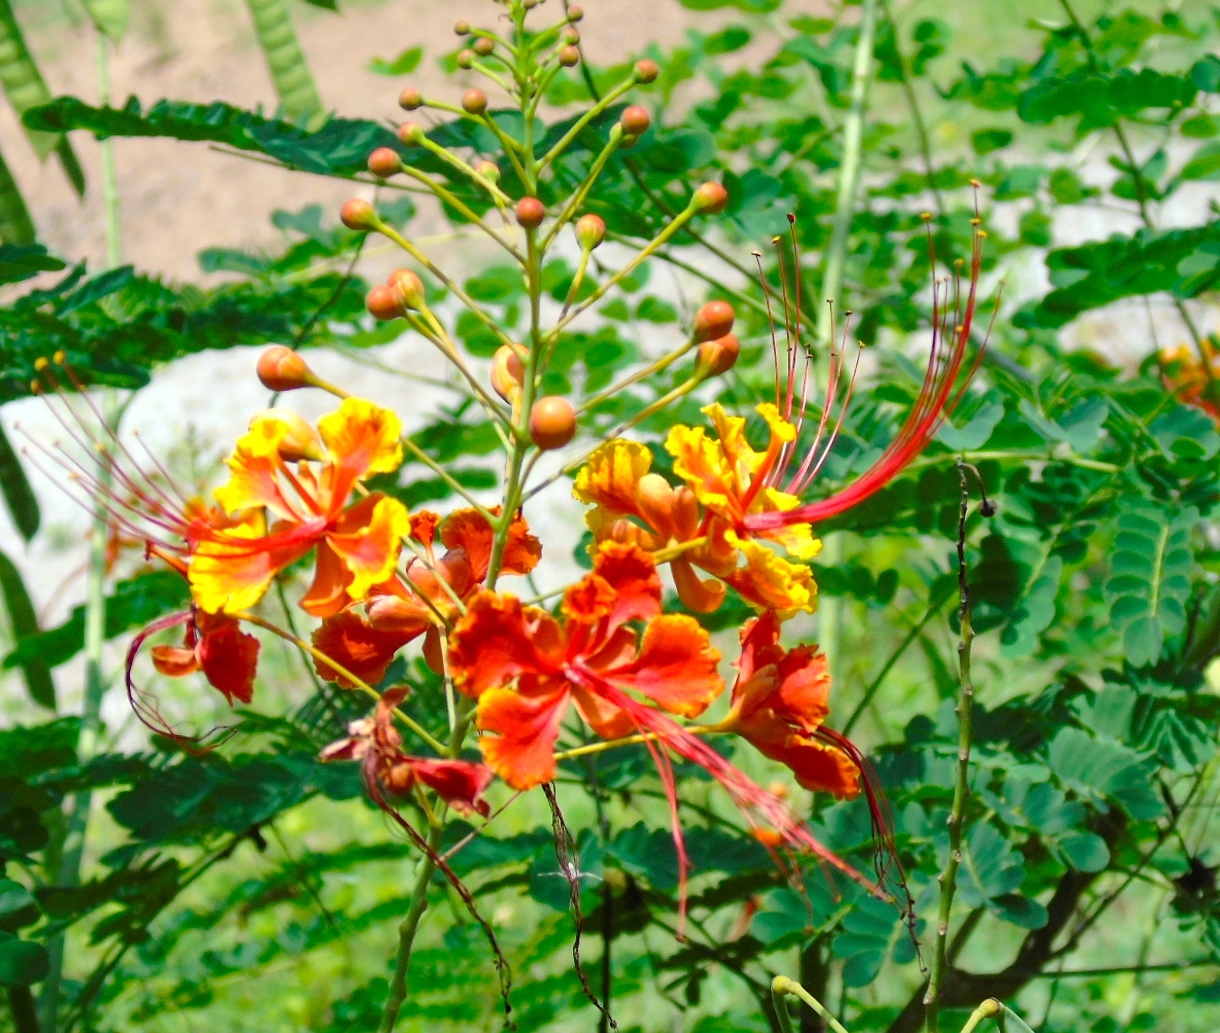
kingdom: Plantae
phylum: Tracheophyta
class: Magnoliopsida
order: Fabales
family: Fabaceae
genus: Caesalpinia
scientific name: Caesalpinia pulcherrima
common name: Pride-of-barbados
